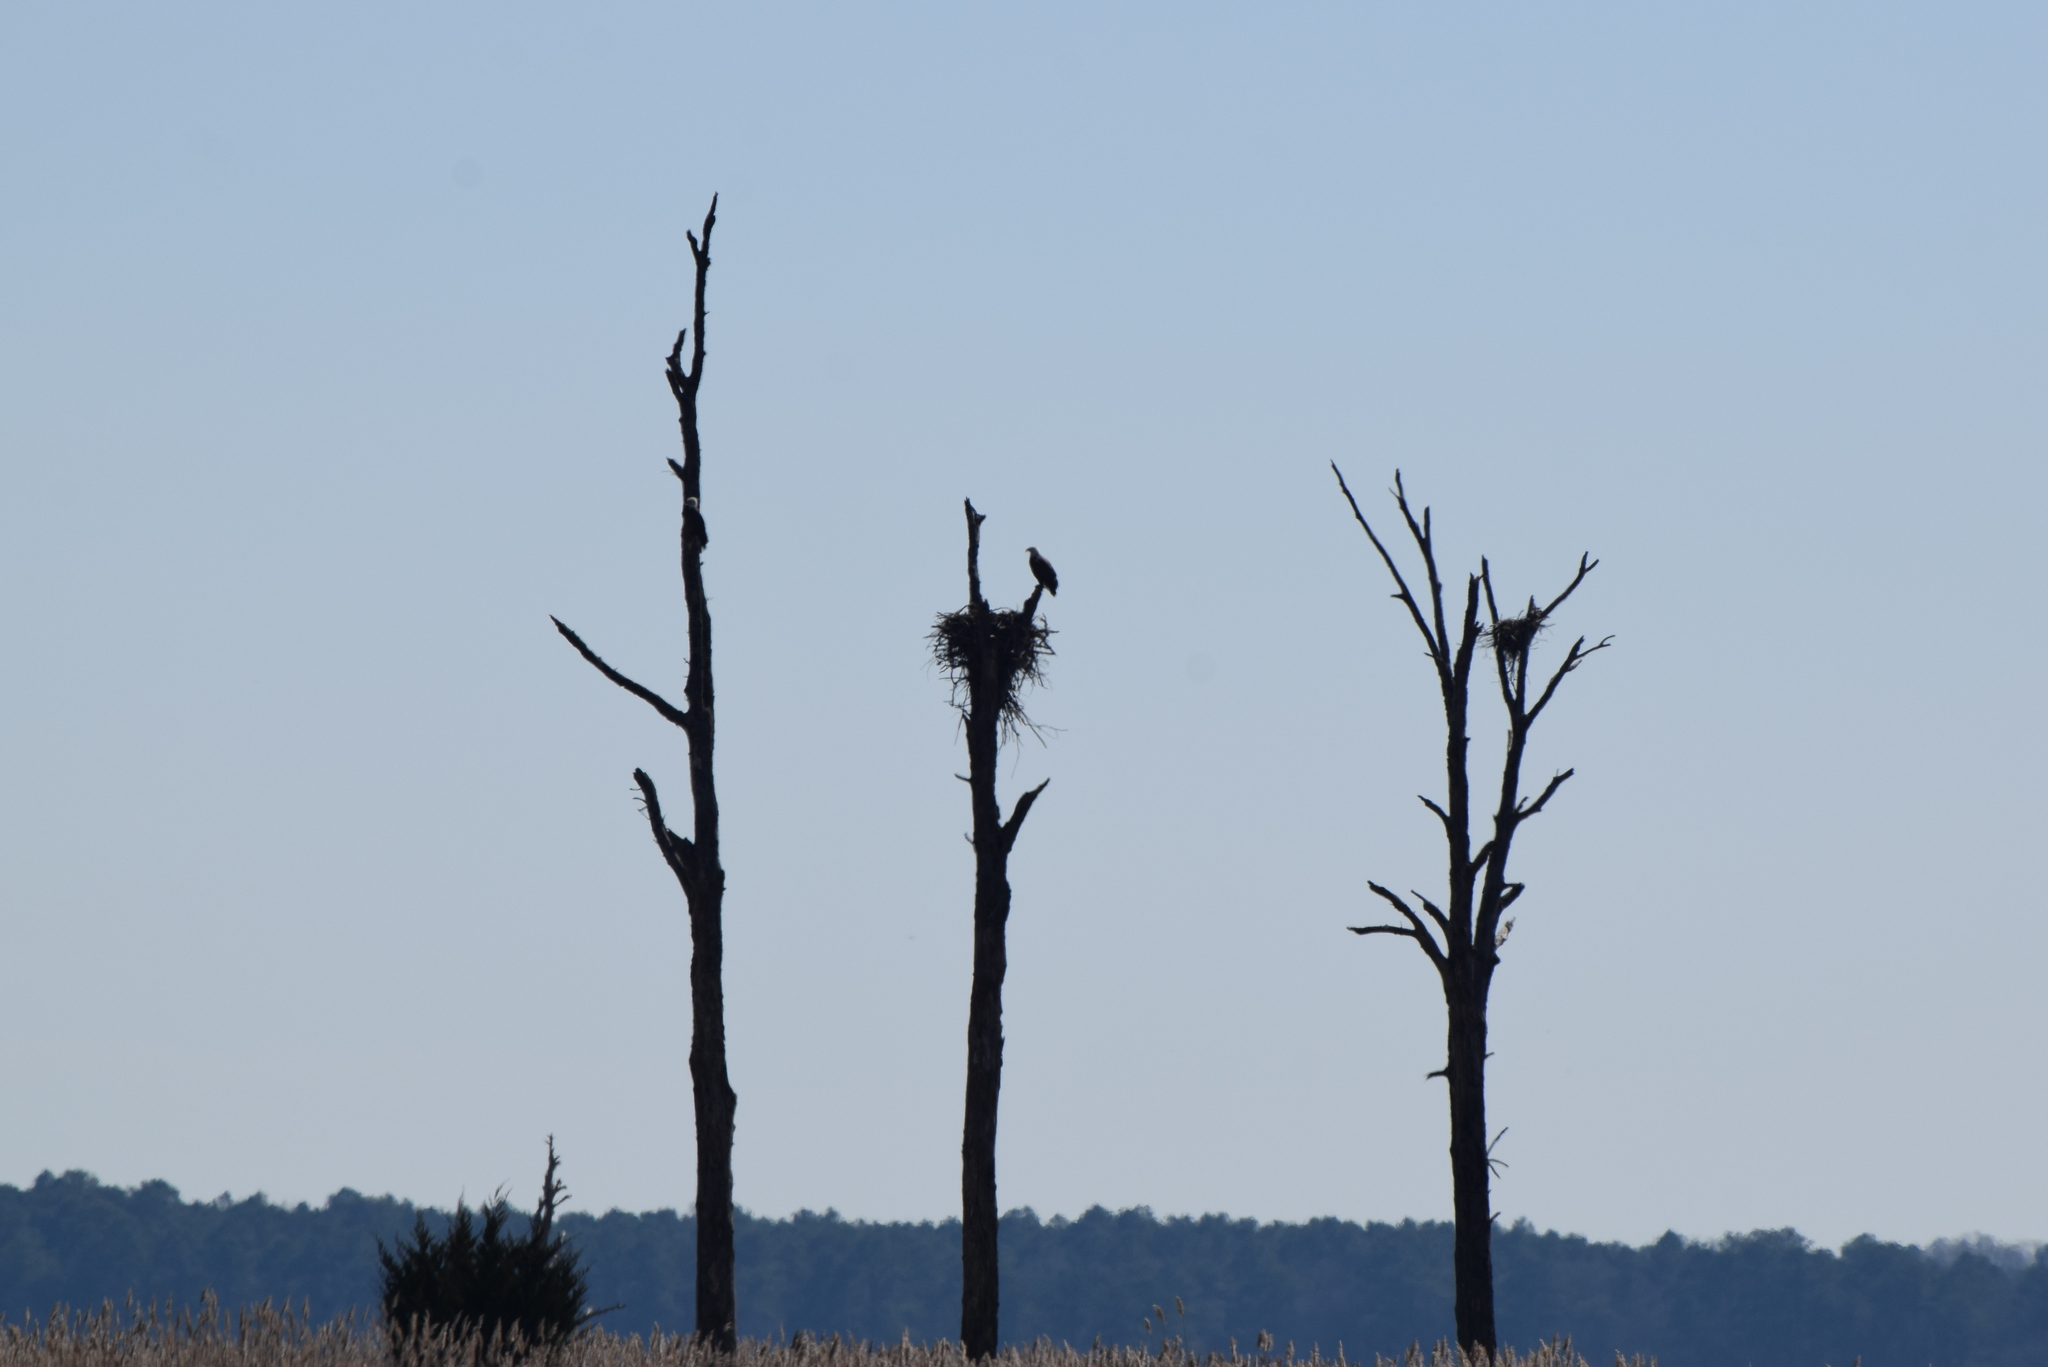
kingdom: Animalia
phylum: Chordata
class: Aves
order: Accipitriformes
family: Accipitridae
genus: Haliaeetus
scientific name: Haliaeetus leucocephalus
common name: Bald eagle
